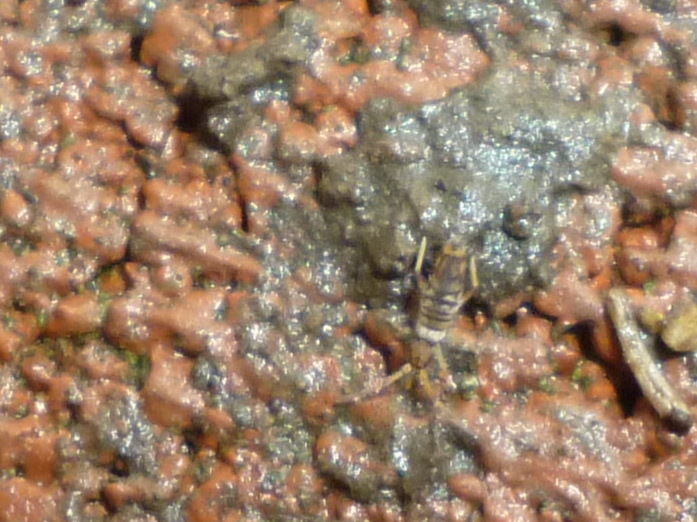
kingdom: Animalia
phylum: Arthropoda
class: Collembola
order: Entomobryomorpha
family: Entomobryidae
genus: Entomobrya
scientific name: Entomobrya atrocincta
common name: Springtail
